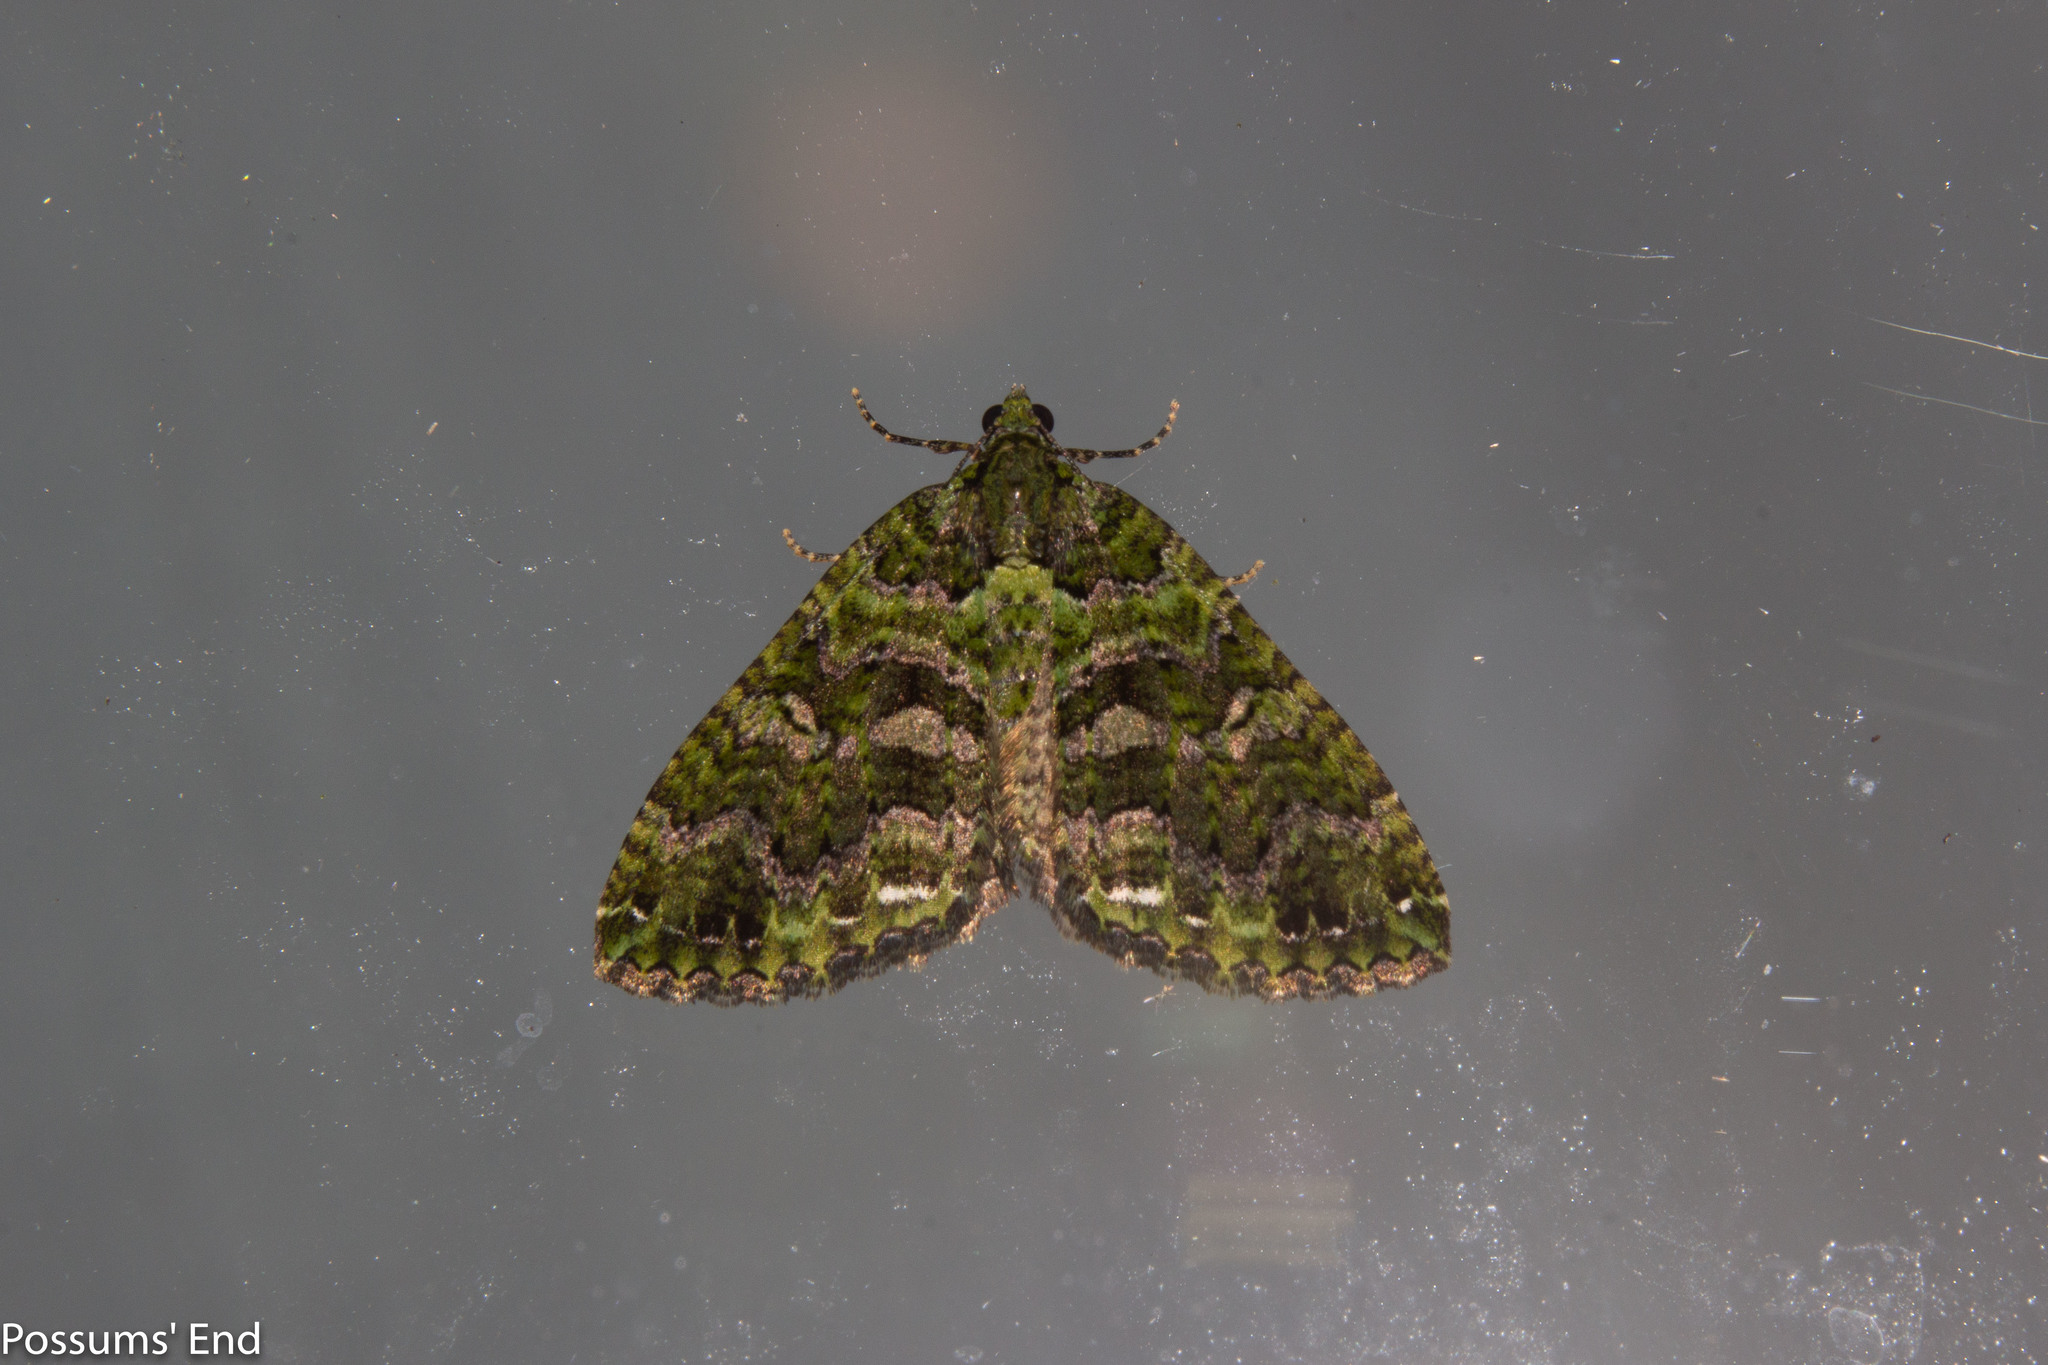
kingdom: Animalia
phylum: Arthropoda
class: Insecta
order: Lepidoptera
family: Geometridae
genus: Austrocidaria
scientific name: Austrocidaria similata
